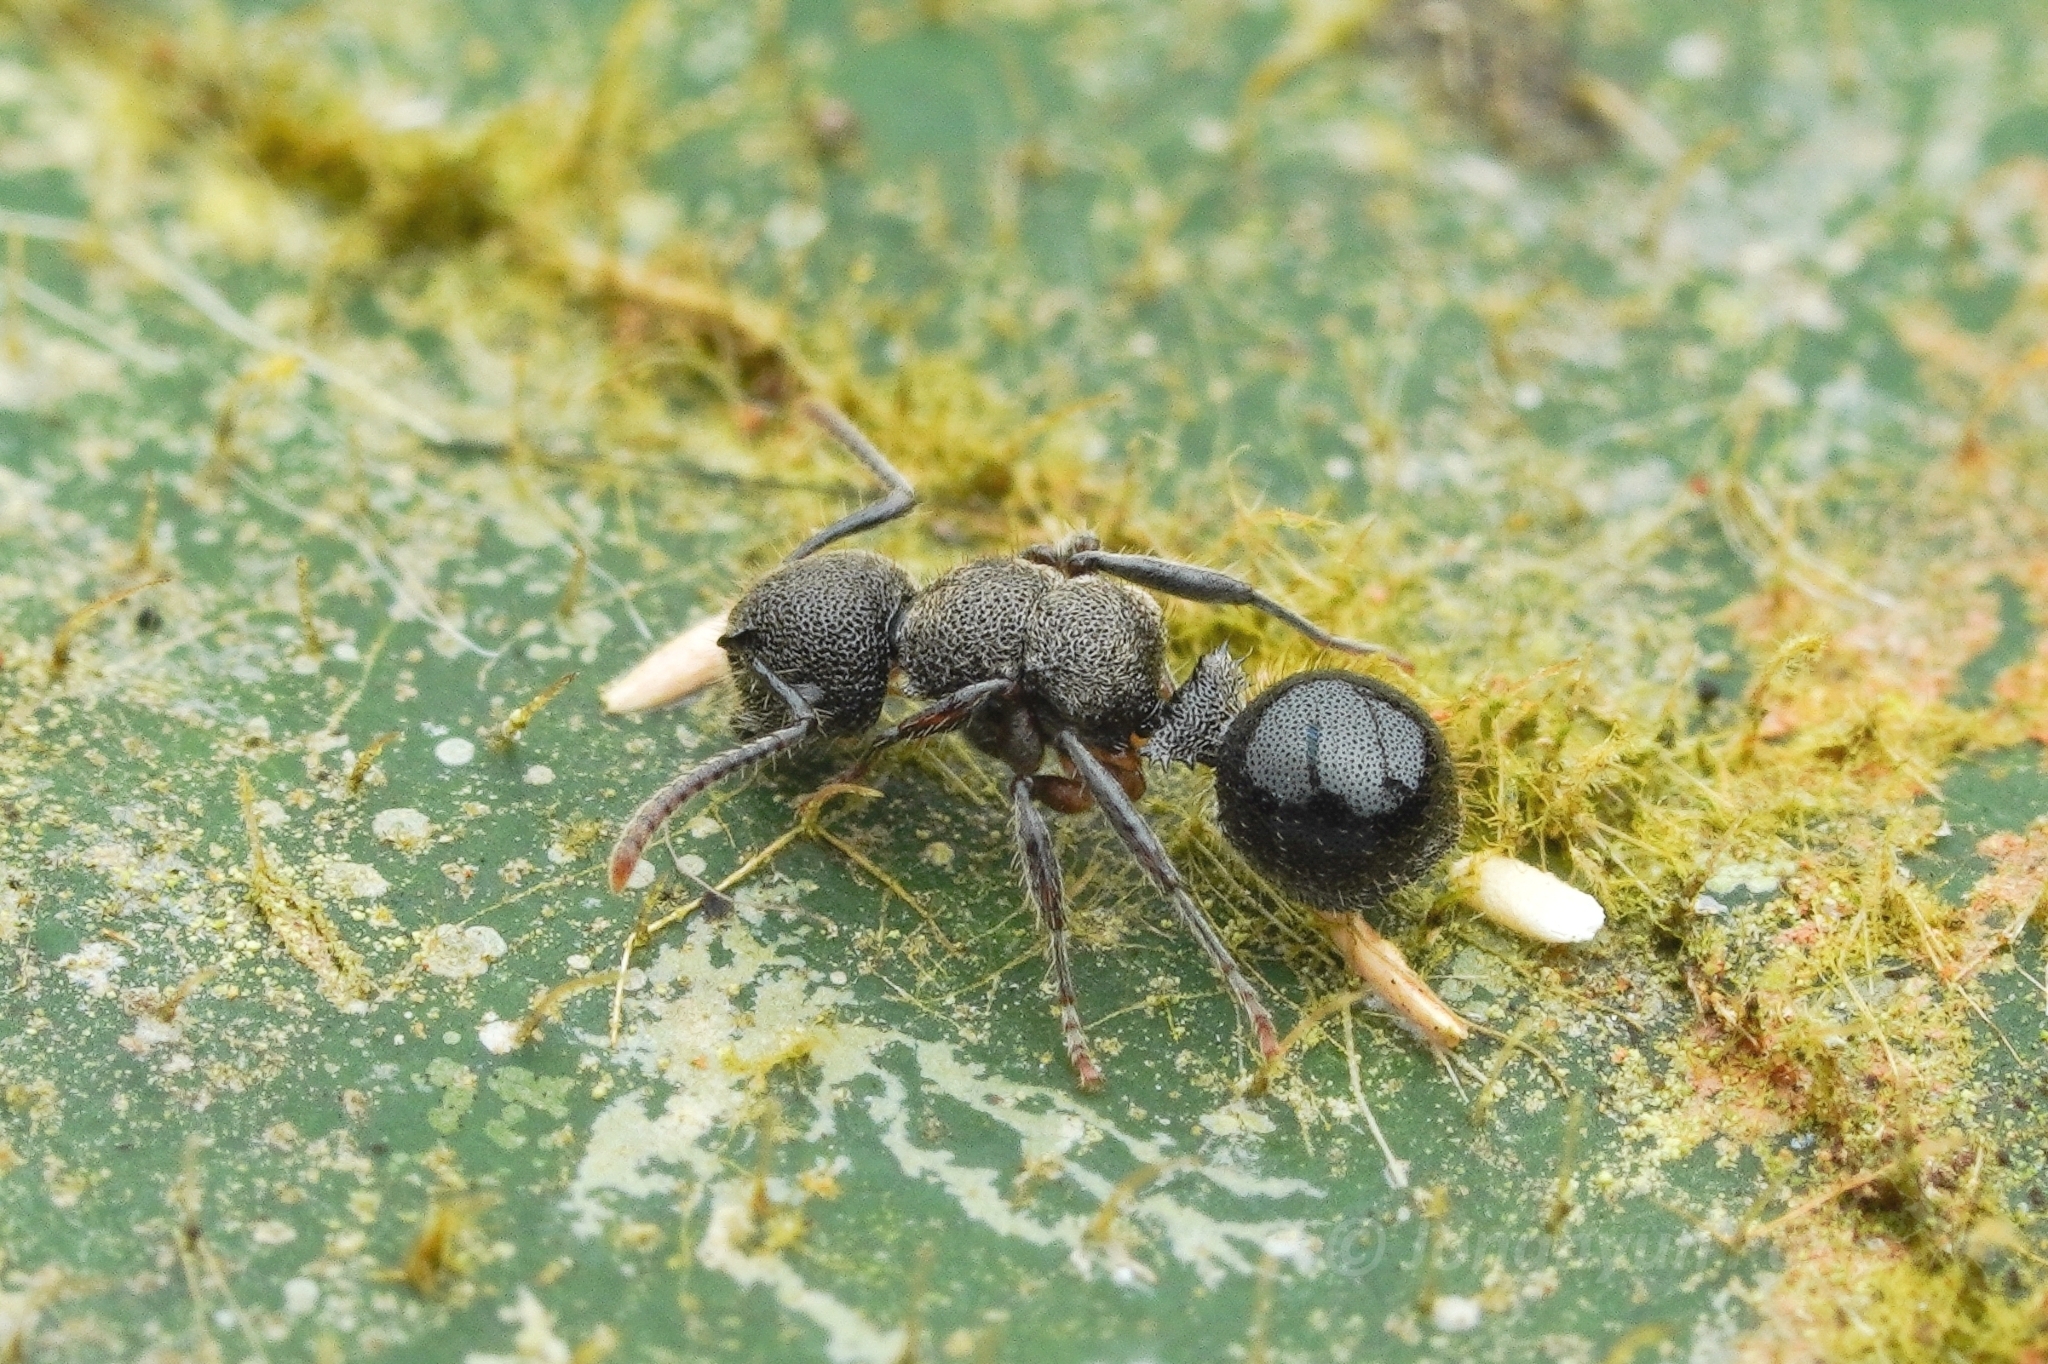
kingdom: Animalia
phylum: Arthropoda
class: Insecta
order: Hymenoptera
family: Formicidae
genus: Echinopla
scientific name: Echinopla madli
